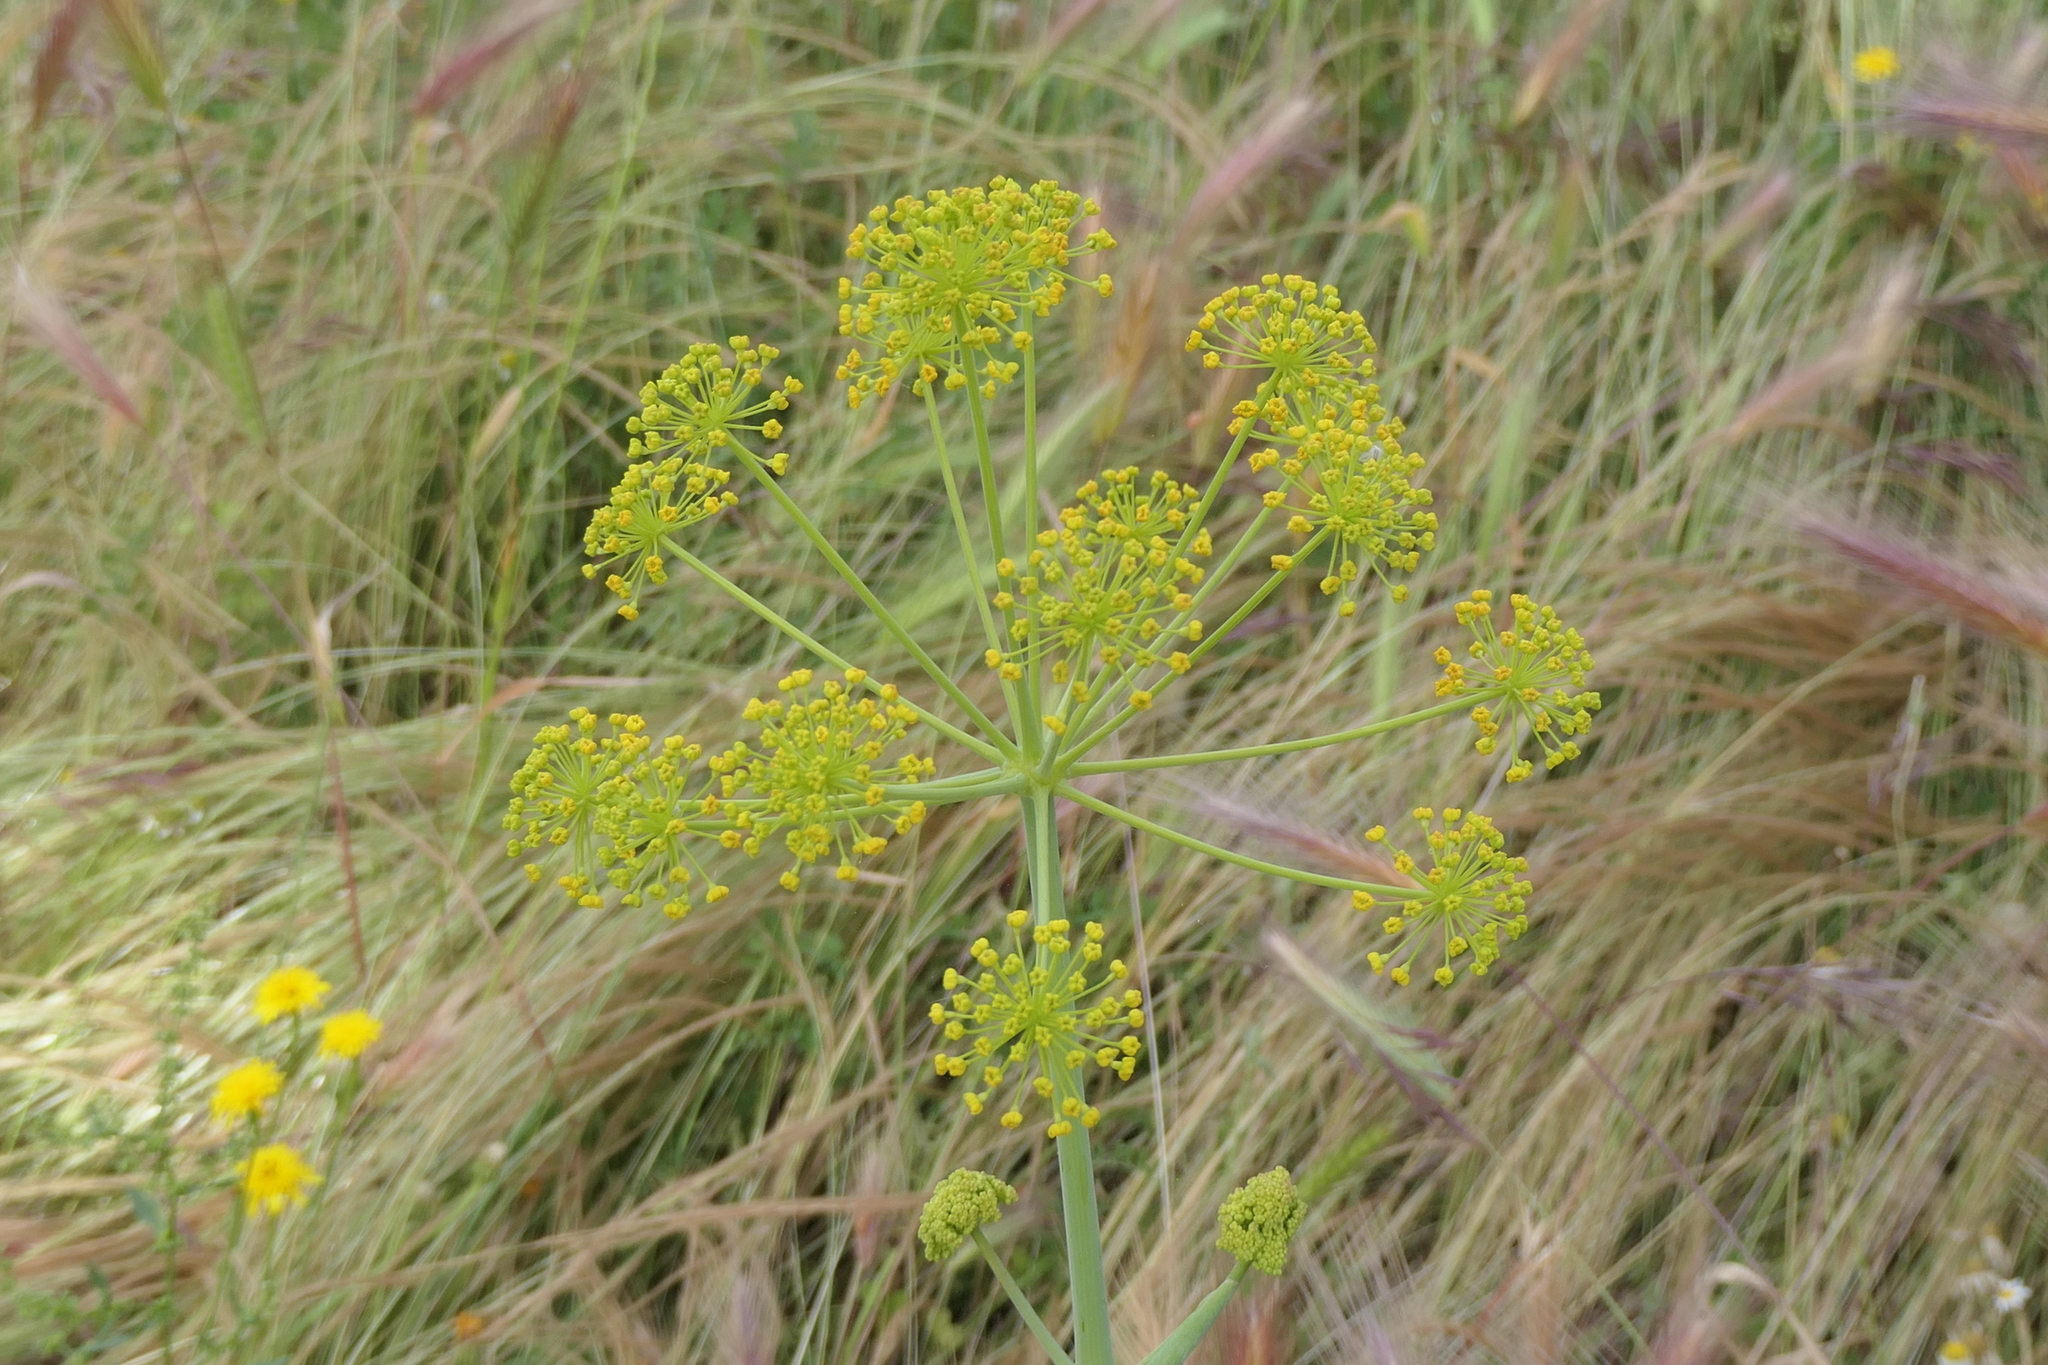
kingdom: Plantae
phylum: Tracheophyta
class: Magnoliopsida
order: Apiales
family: Apiaceae
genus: Thapsia
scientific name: Thapsia villosa
